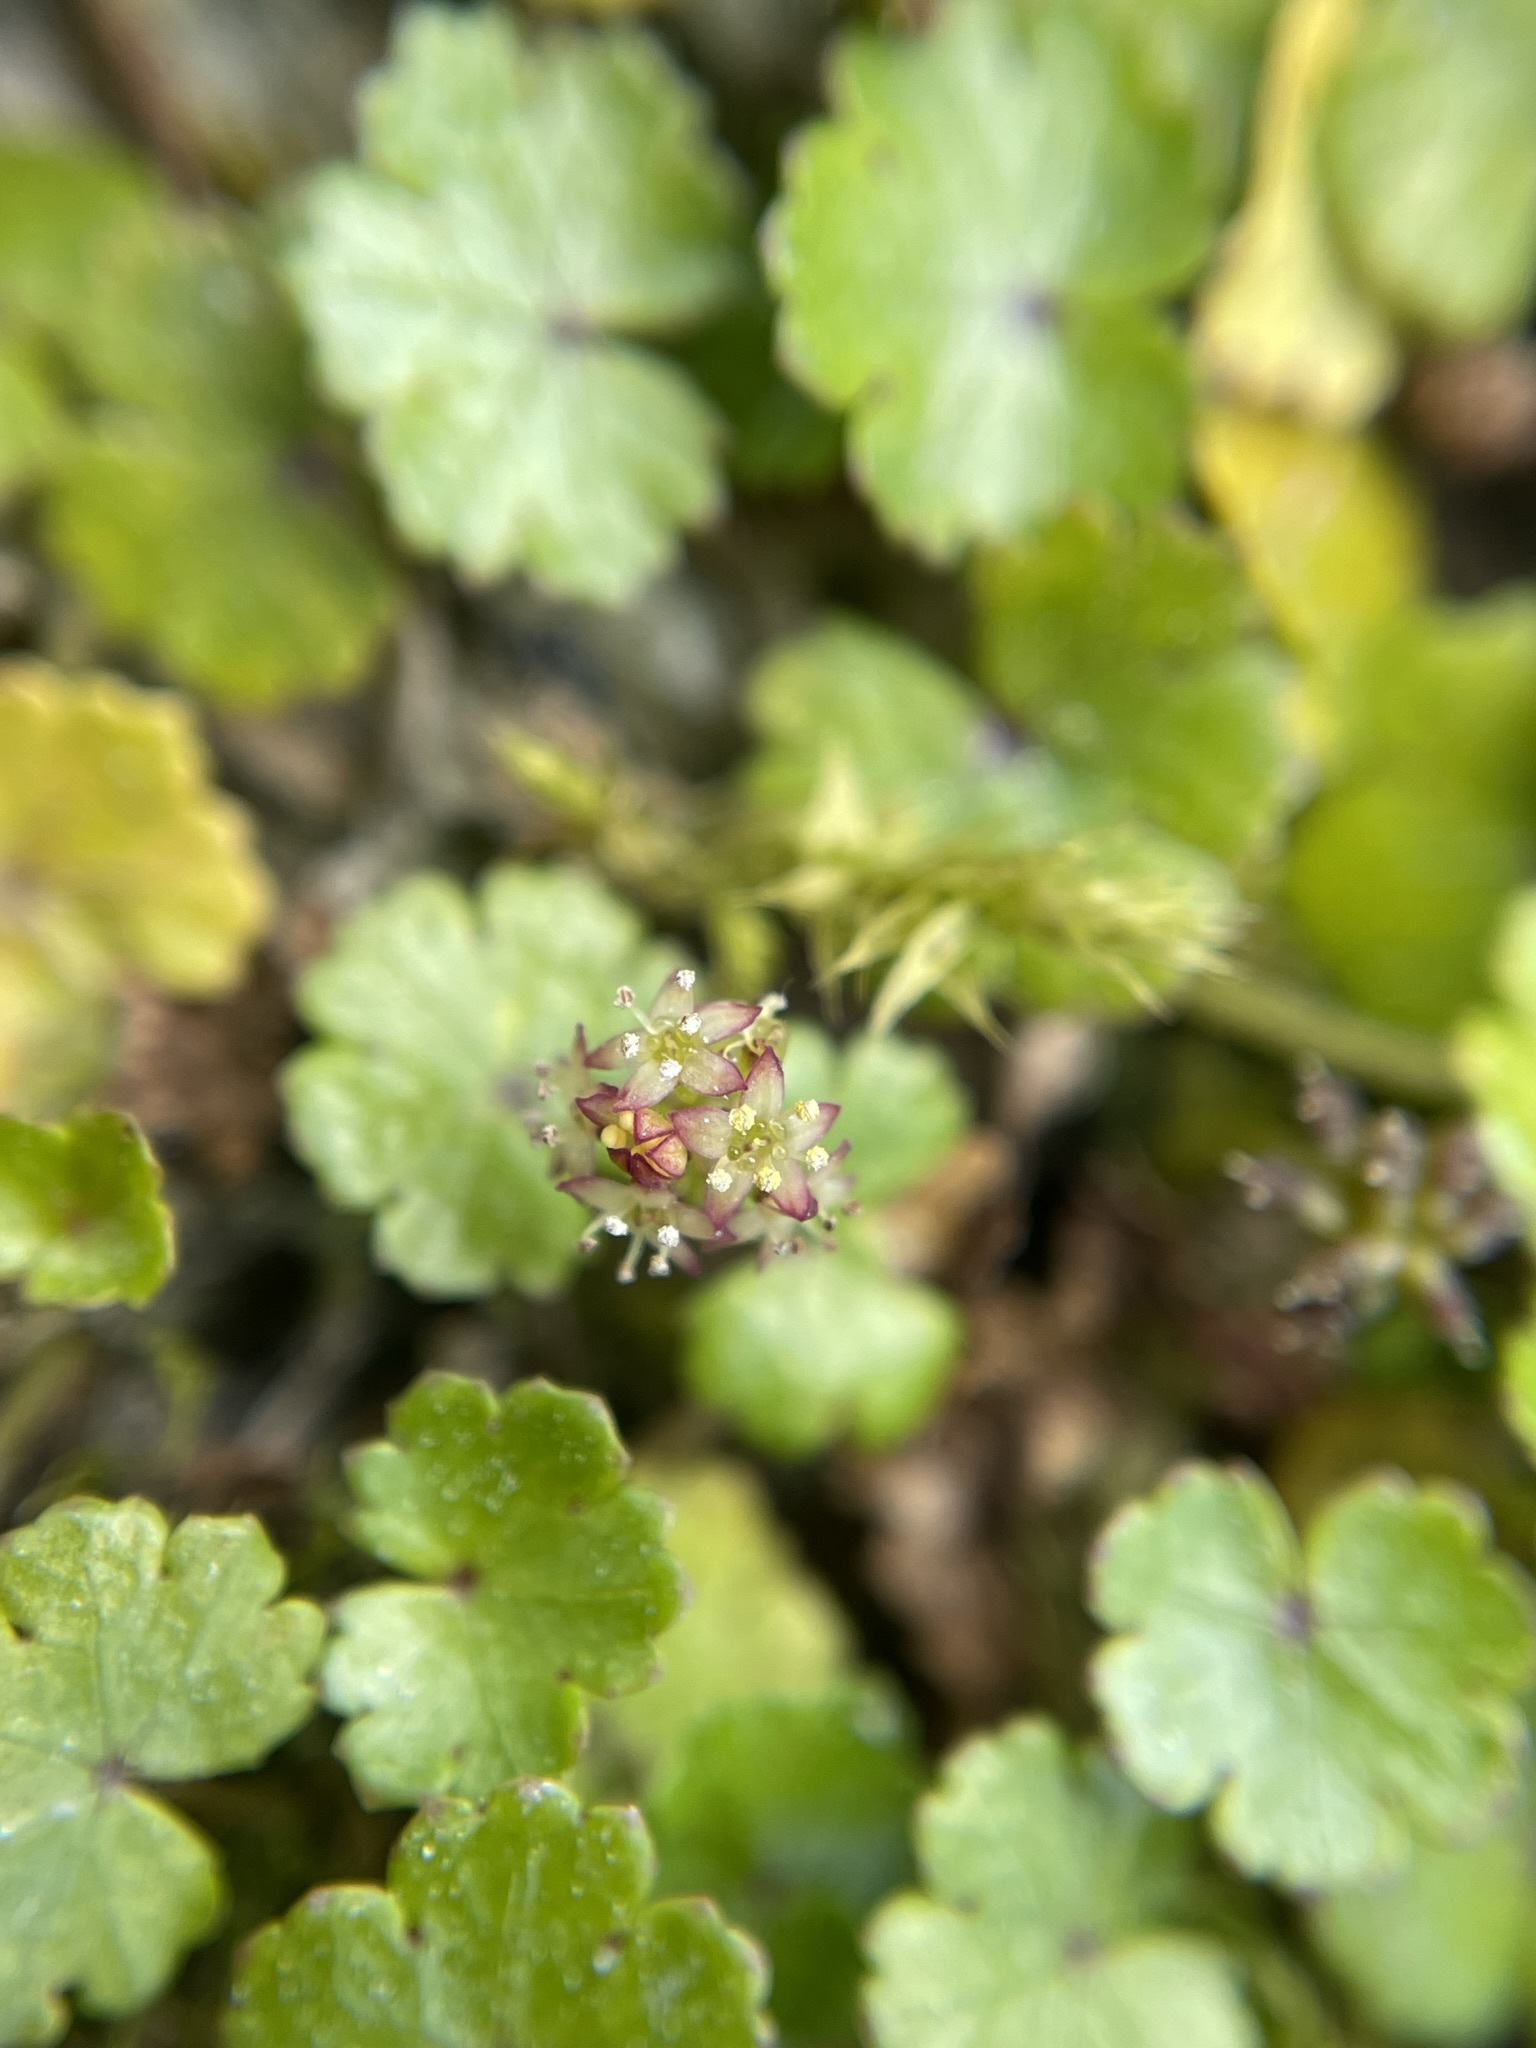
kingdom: Plantae
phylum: Tracheophyta
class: Magnoliopsida
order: Apiales
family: Araliaceae
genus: Hydrocotyle
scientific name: Hydrocotyle novae-zeelandiae
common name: New zealand pennywort
